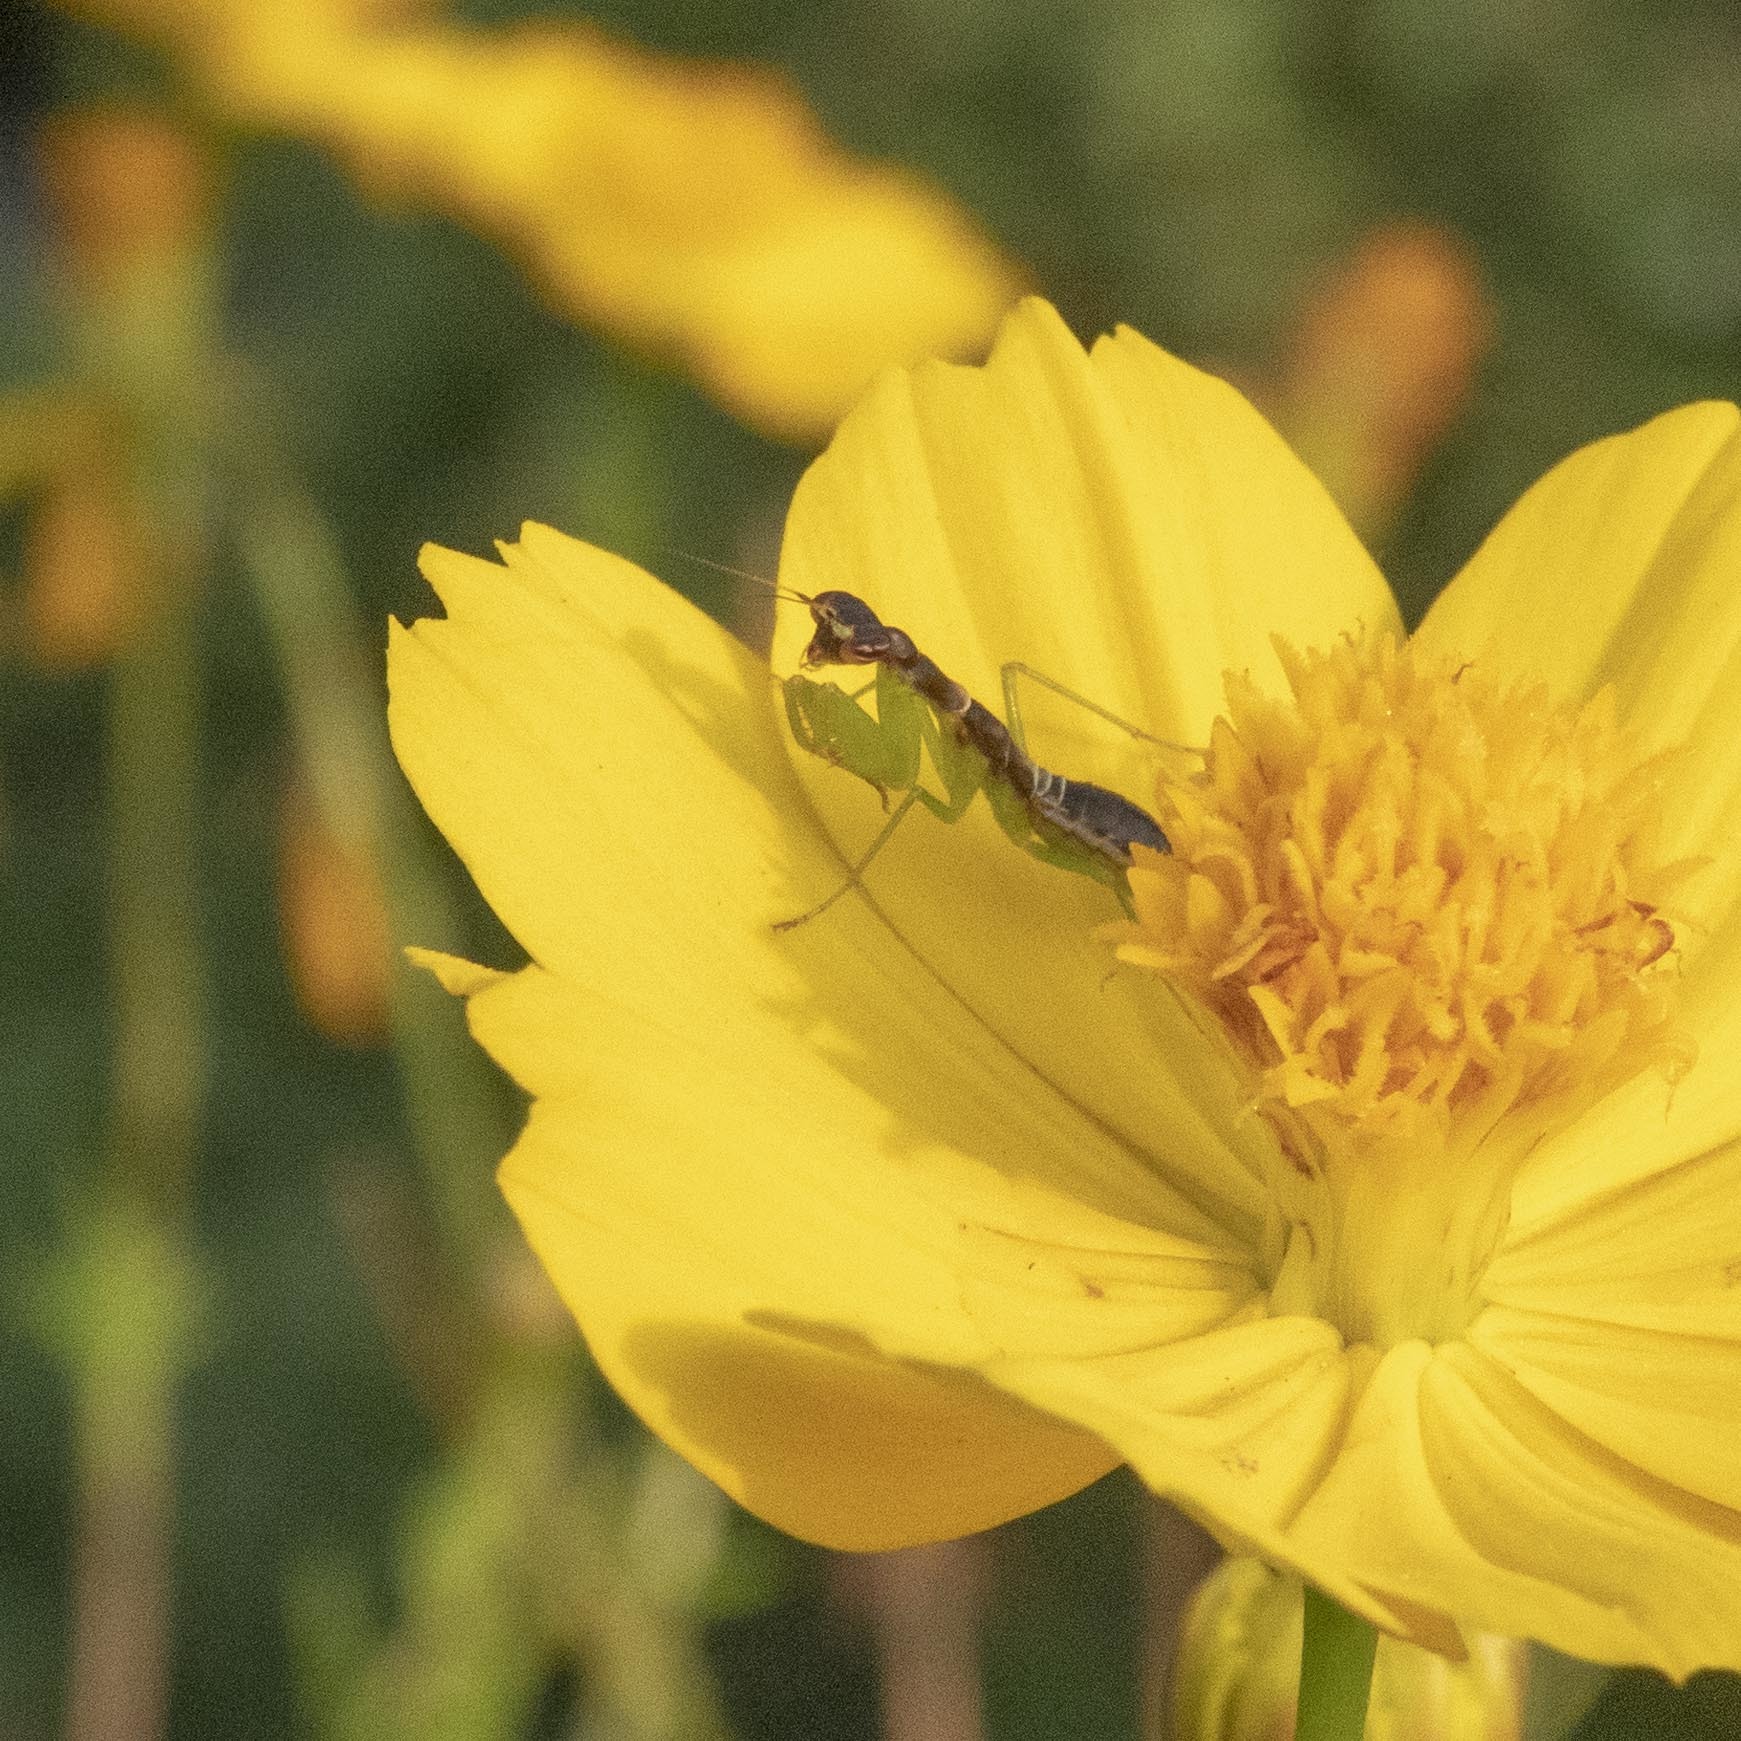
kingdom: Animalia
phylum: Arthropoda
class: Insecta
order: Mantodea
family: Hymenopodidae
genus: Odontomantis
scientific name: Odontomantis planiceps
